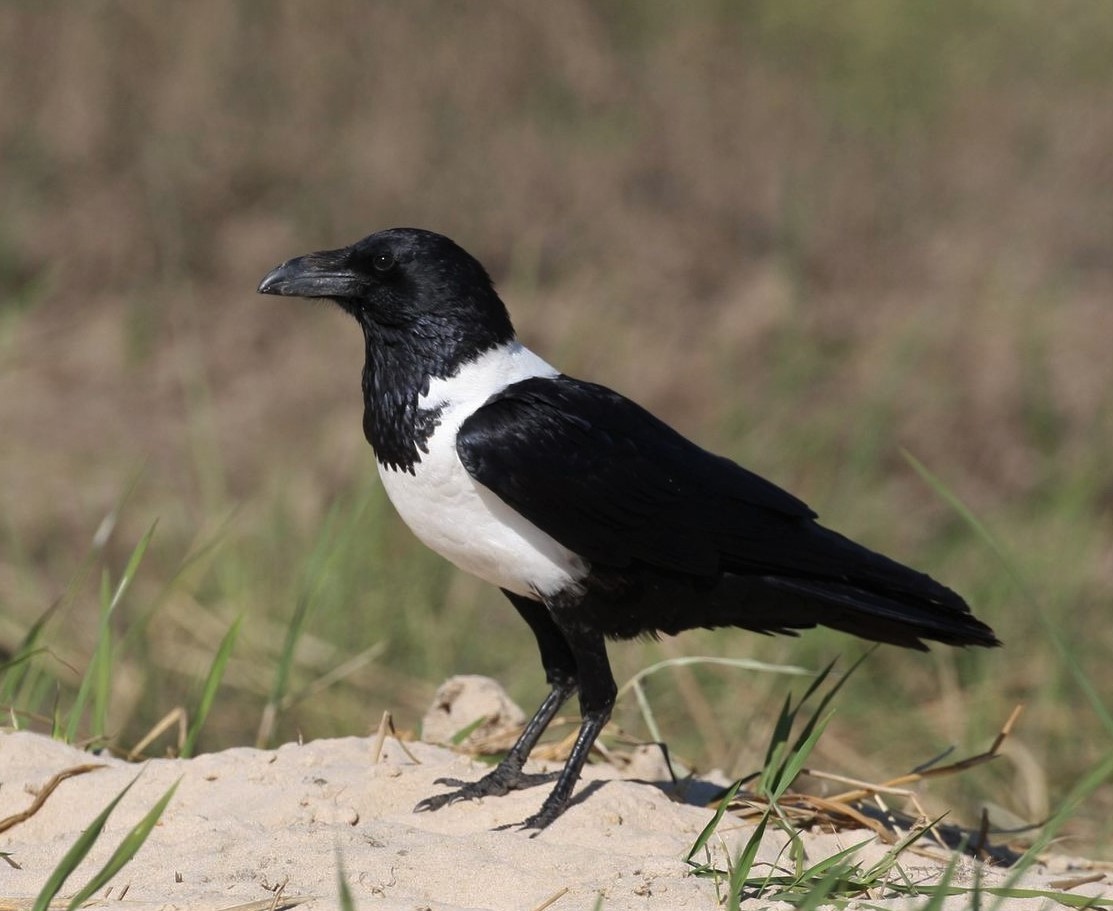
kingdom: Animalia
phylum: Chordata
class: Aves
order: Passeriformes
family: Corvidae
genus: Corvus
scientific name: Corvus albus
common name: Pied crow
